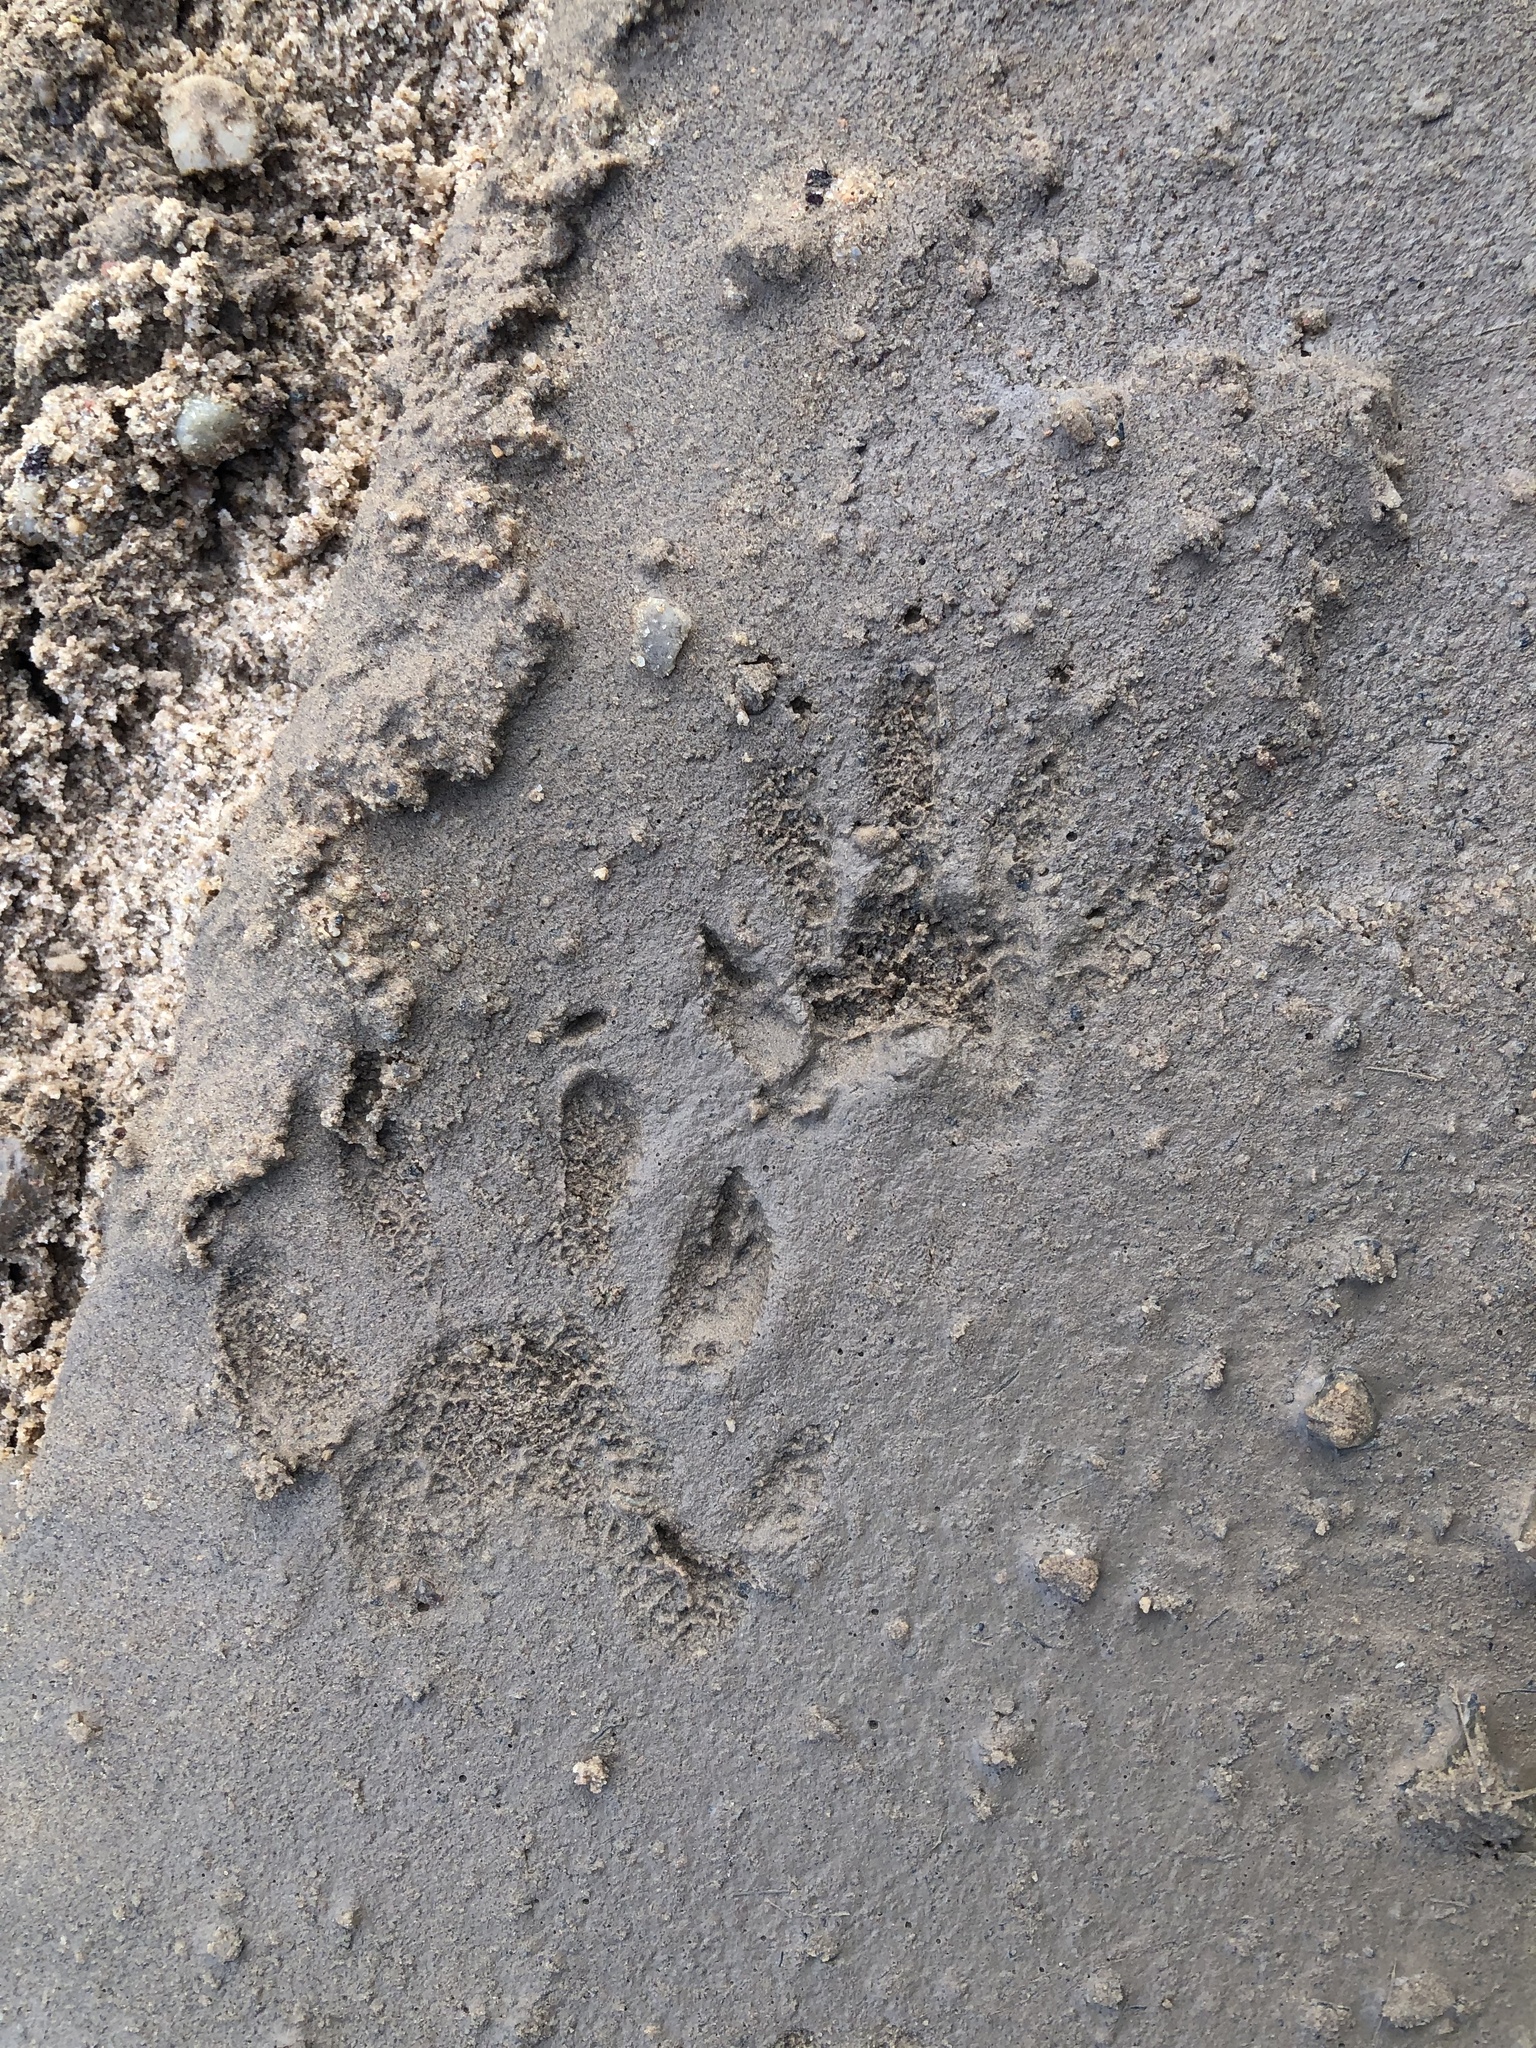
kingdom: Animalia
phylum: Chordata
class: Mammalia
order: Carnivora
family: Procyonidae
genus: Procyon
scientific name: Procyon cancrivorus
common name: Crab-eating raccoon
